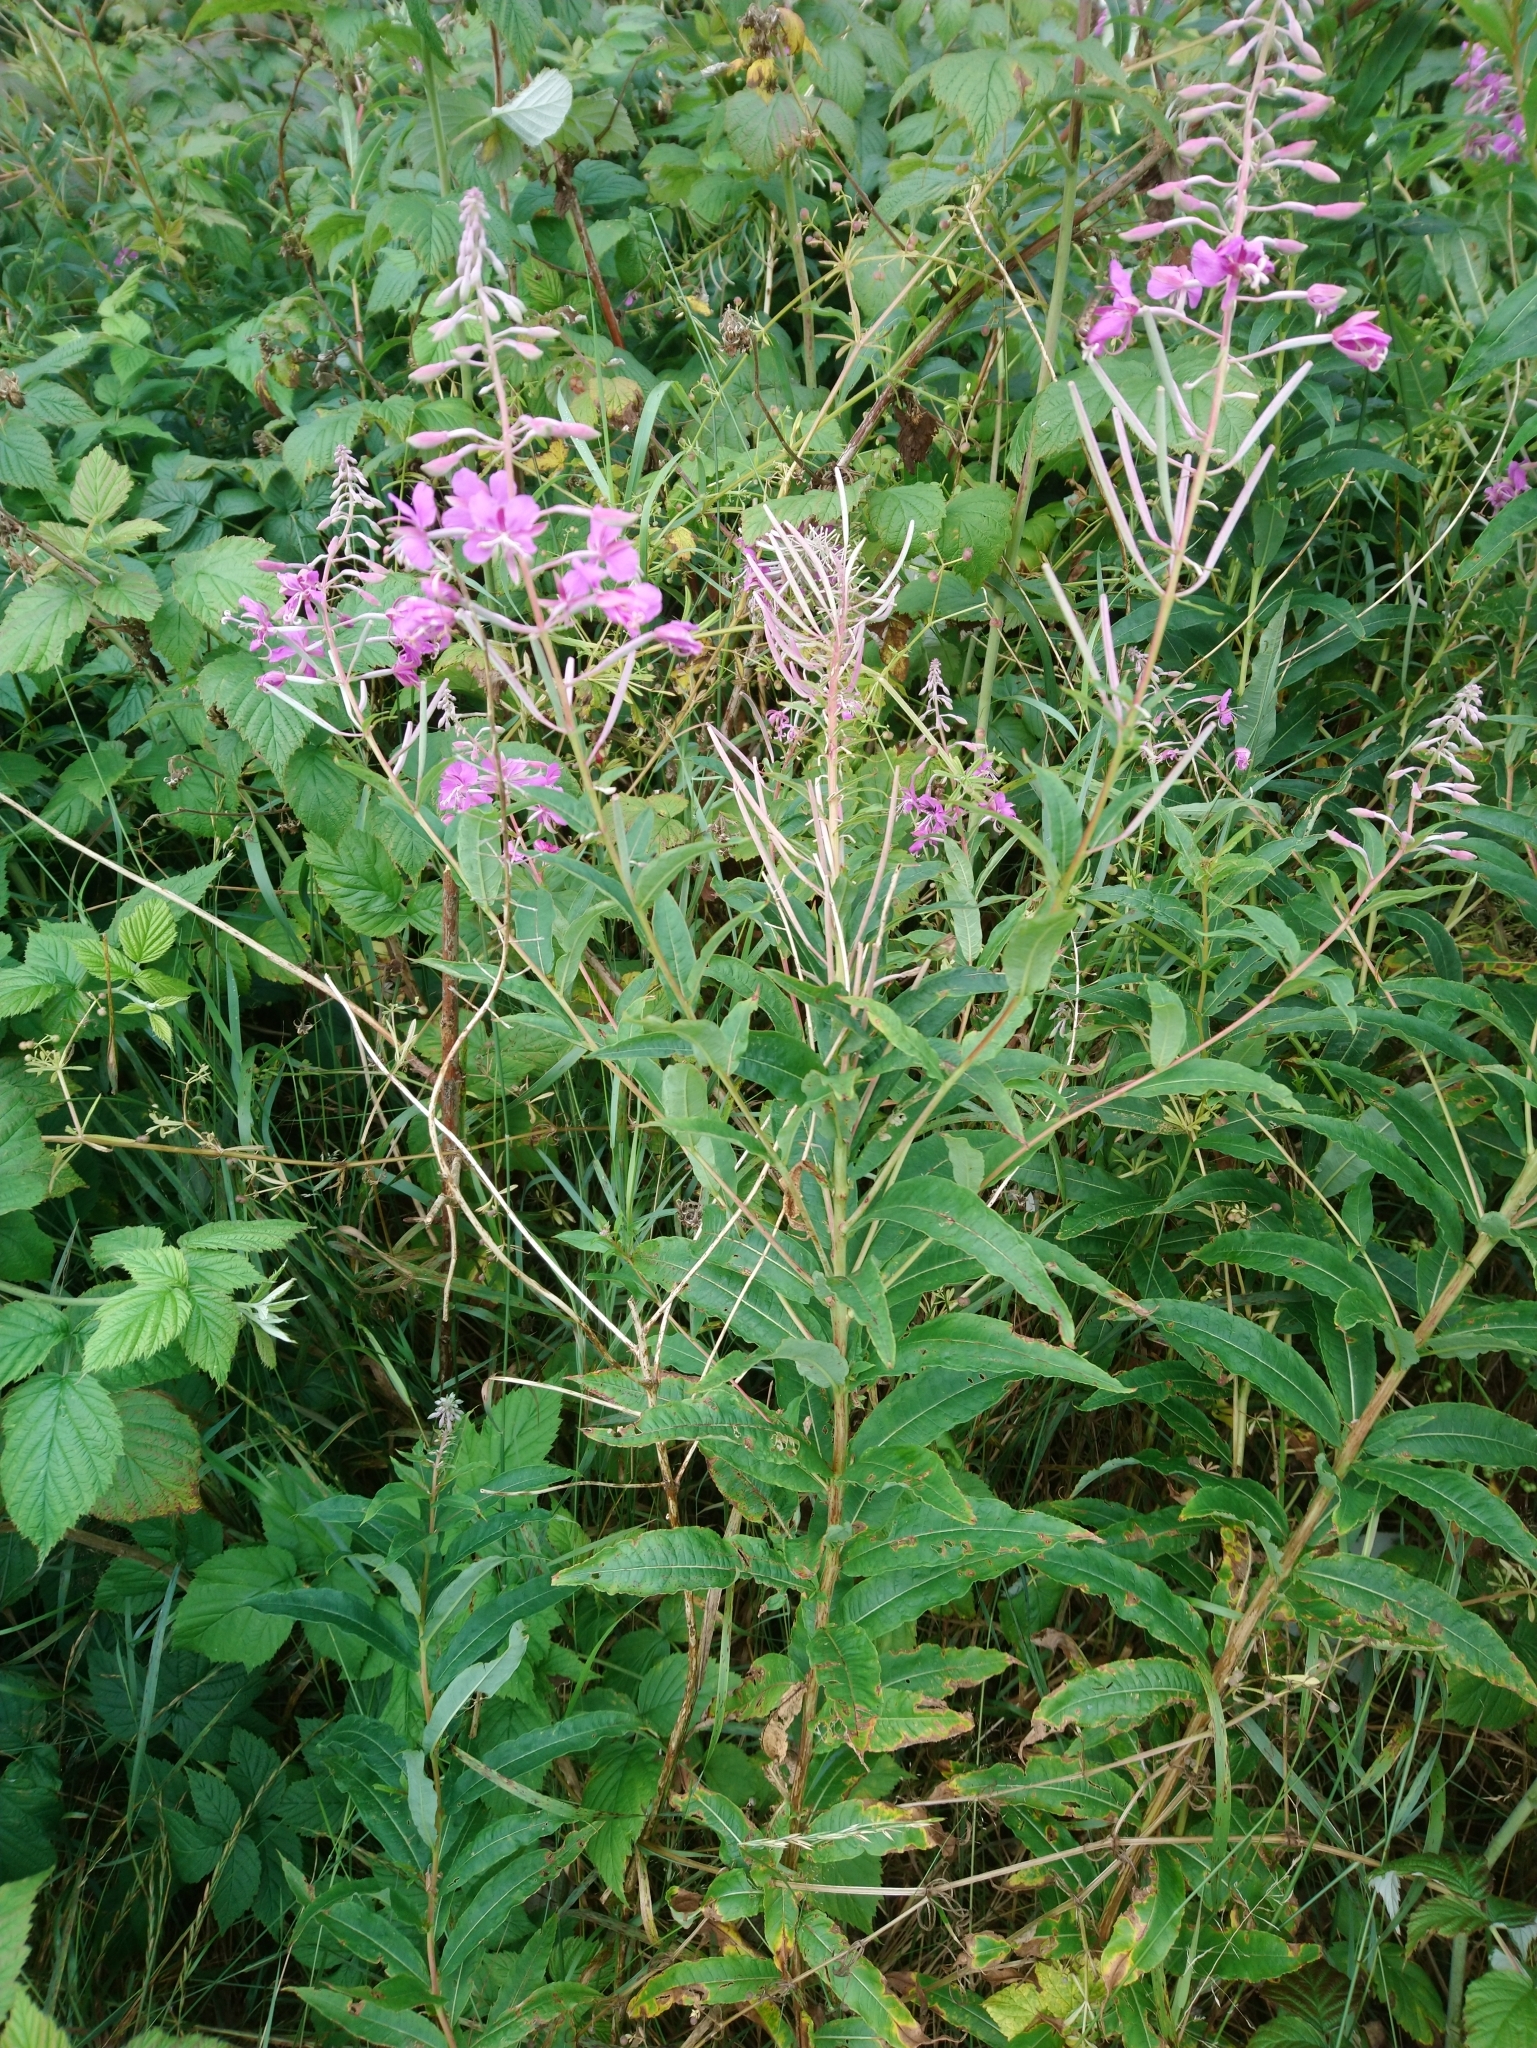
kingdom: Plantae
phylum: Tracheophyta
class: Magnoliopsida
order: Myrtales
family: Onagraceae
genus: Chamaenerion
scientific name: Chamaenerion angustifolium
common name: Fireweed
